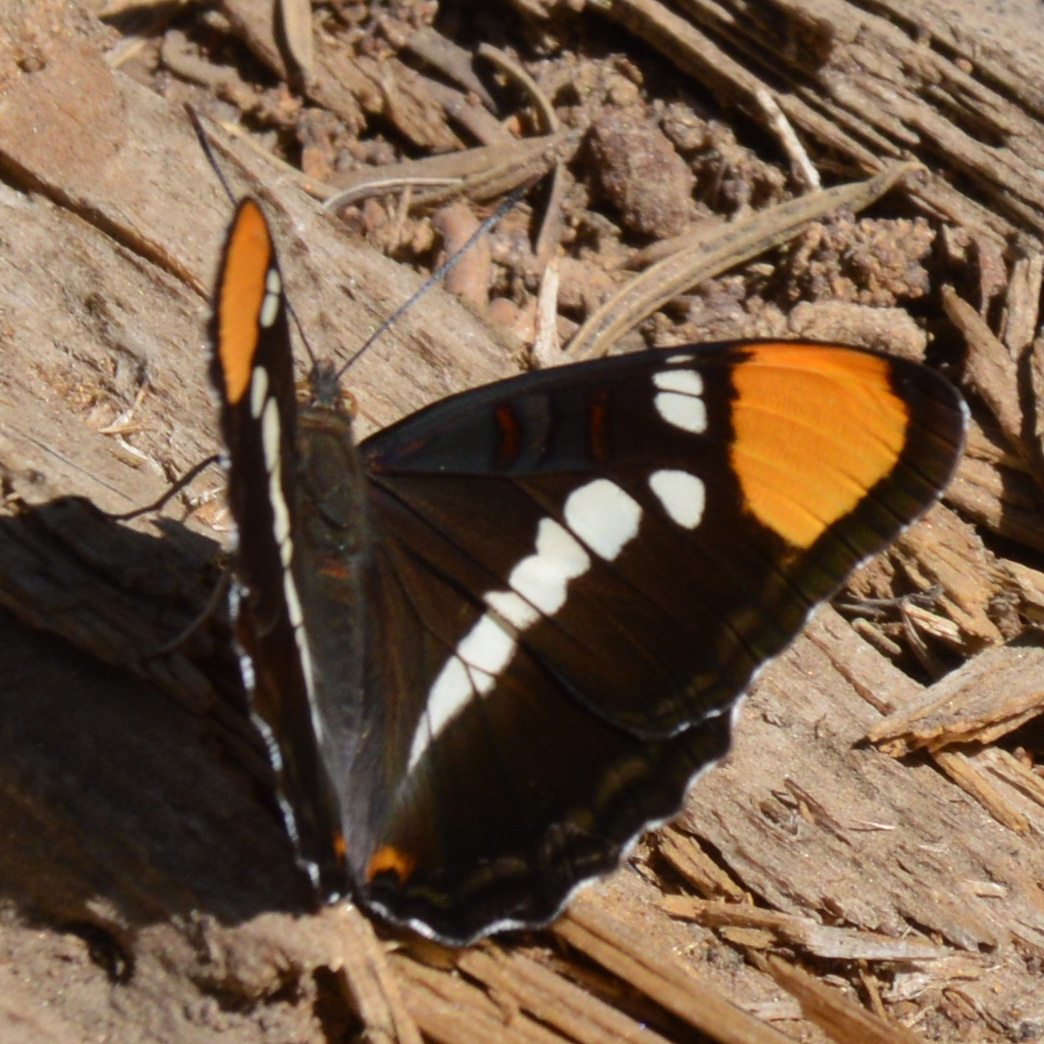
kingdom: Animalia
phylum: Arthropoda
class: Insecta
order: Lepidoptera
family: Nymphalidae
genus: Limenitis
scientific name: Limenitis bredowii
